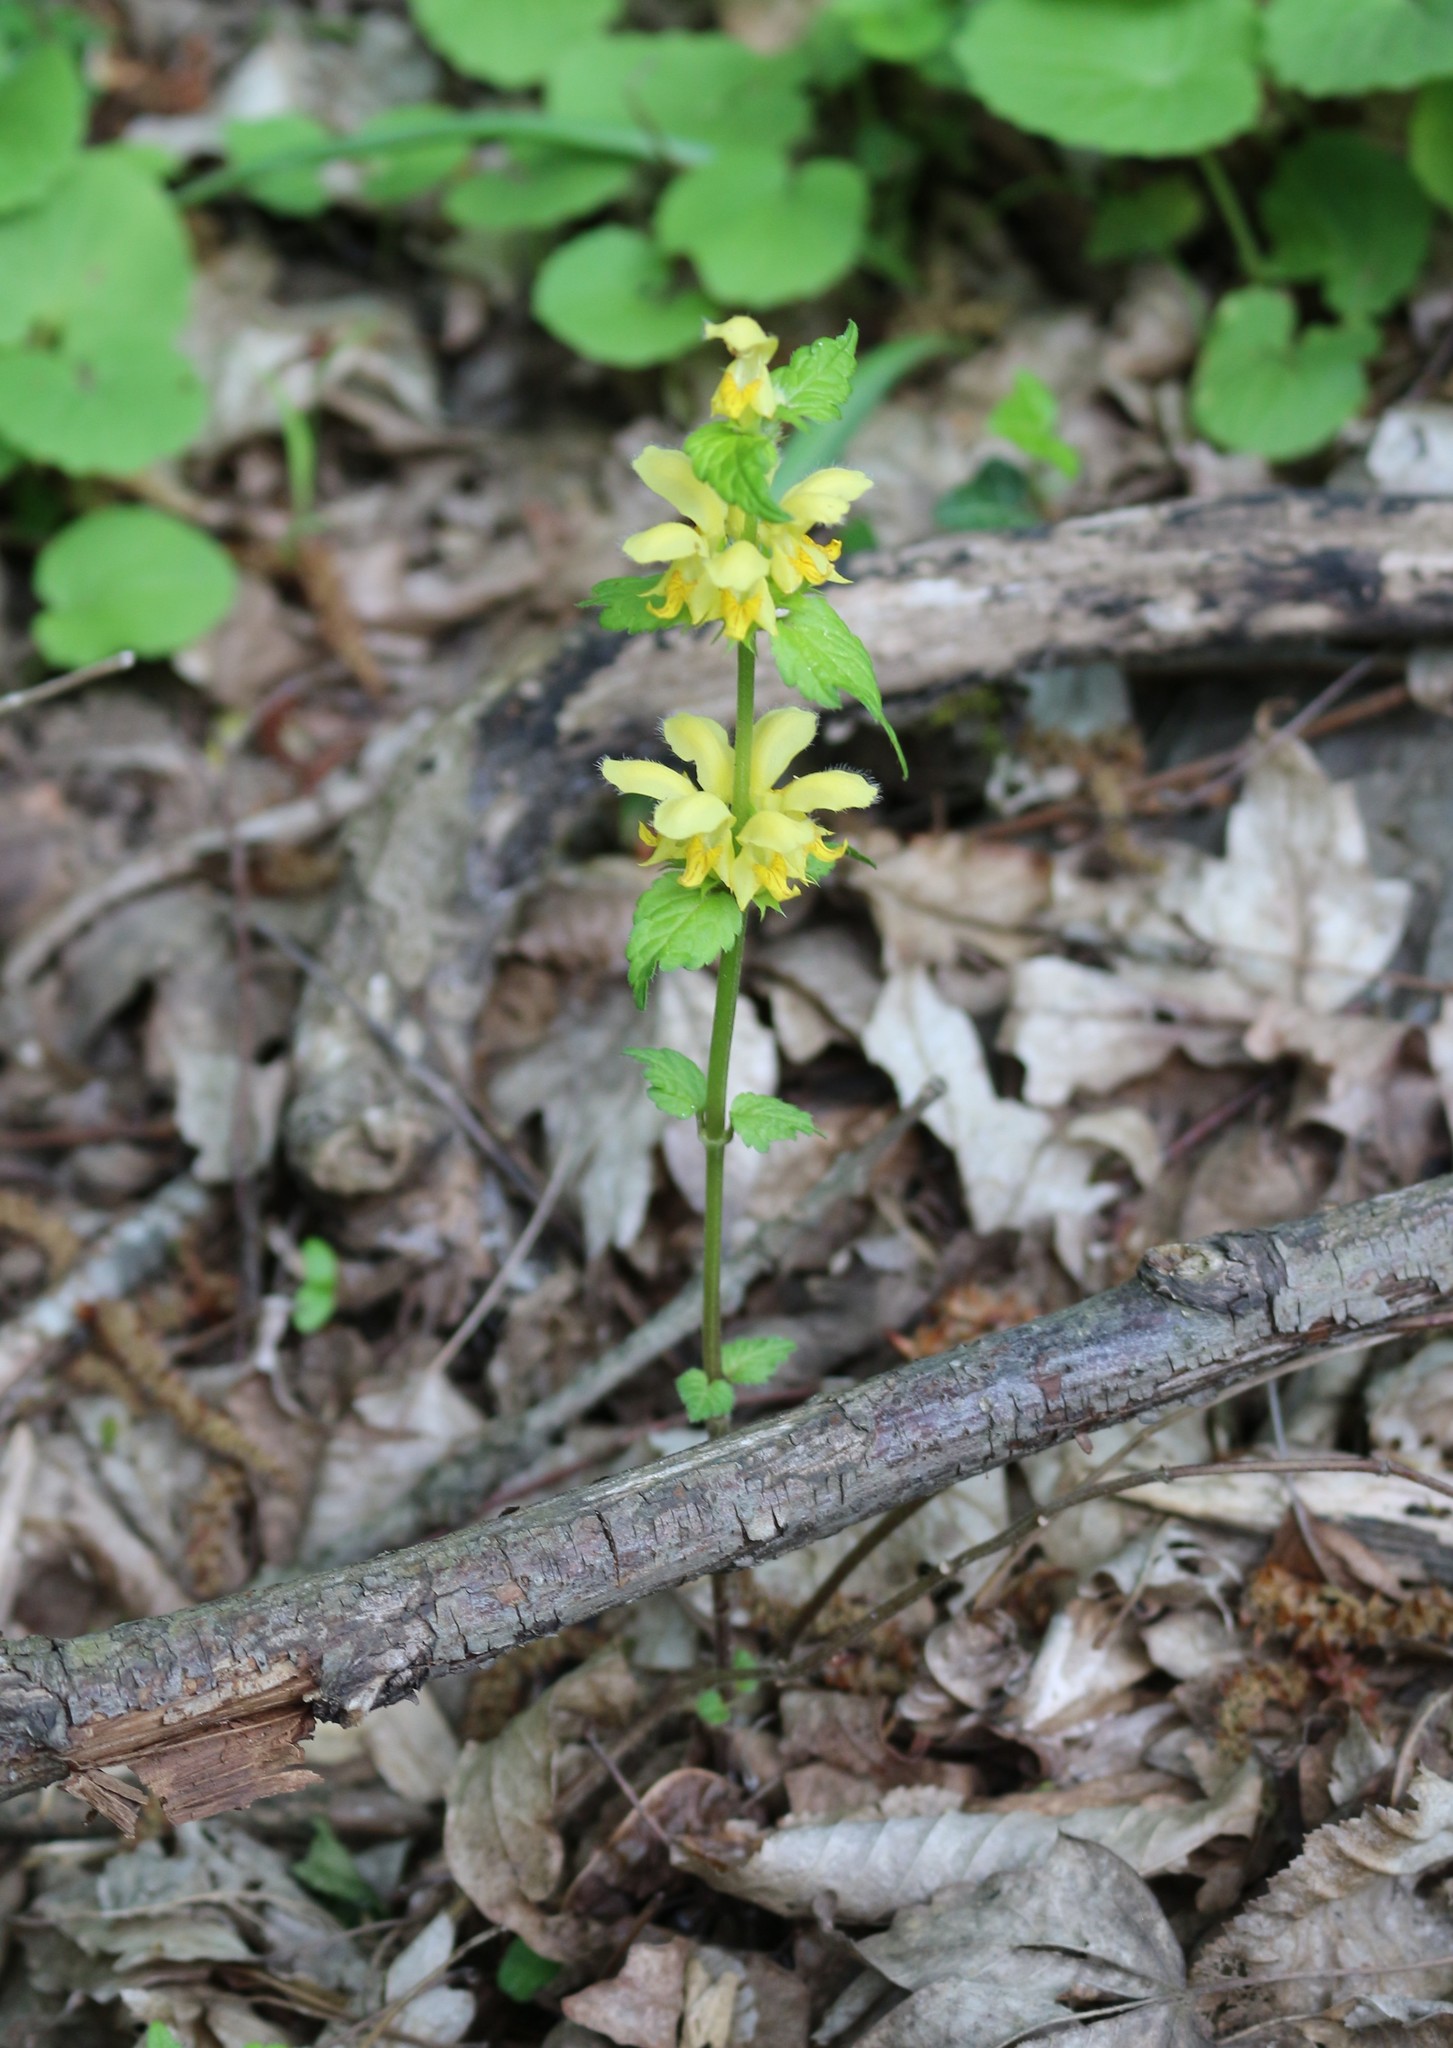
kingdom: Plantae
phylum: Tracheophyta
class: Magnoliopsida
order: Lamiales
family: Lamiaceae
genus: Lamium
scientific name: Lamium galeobdolon
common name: Yellow archangel
